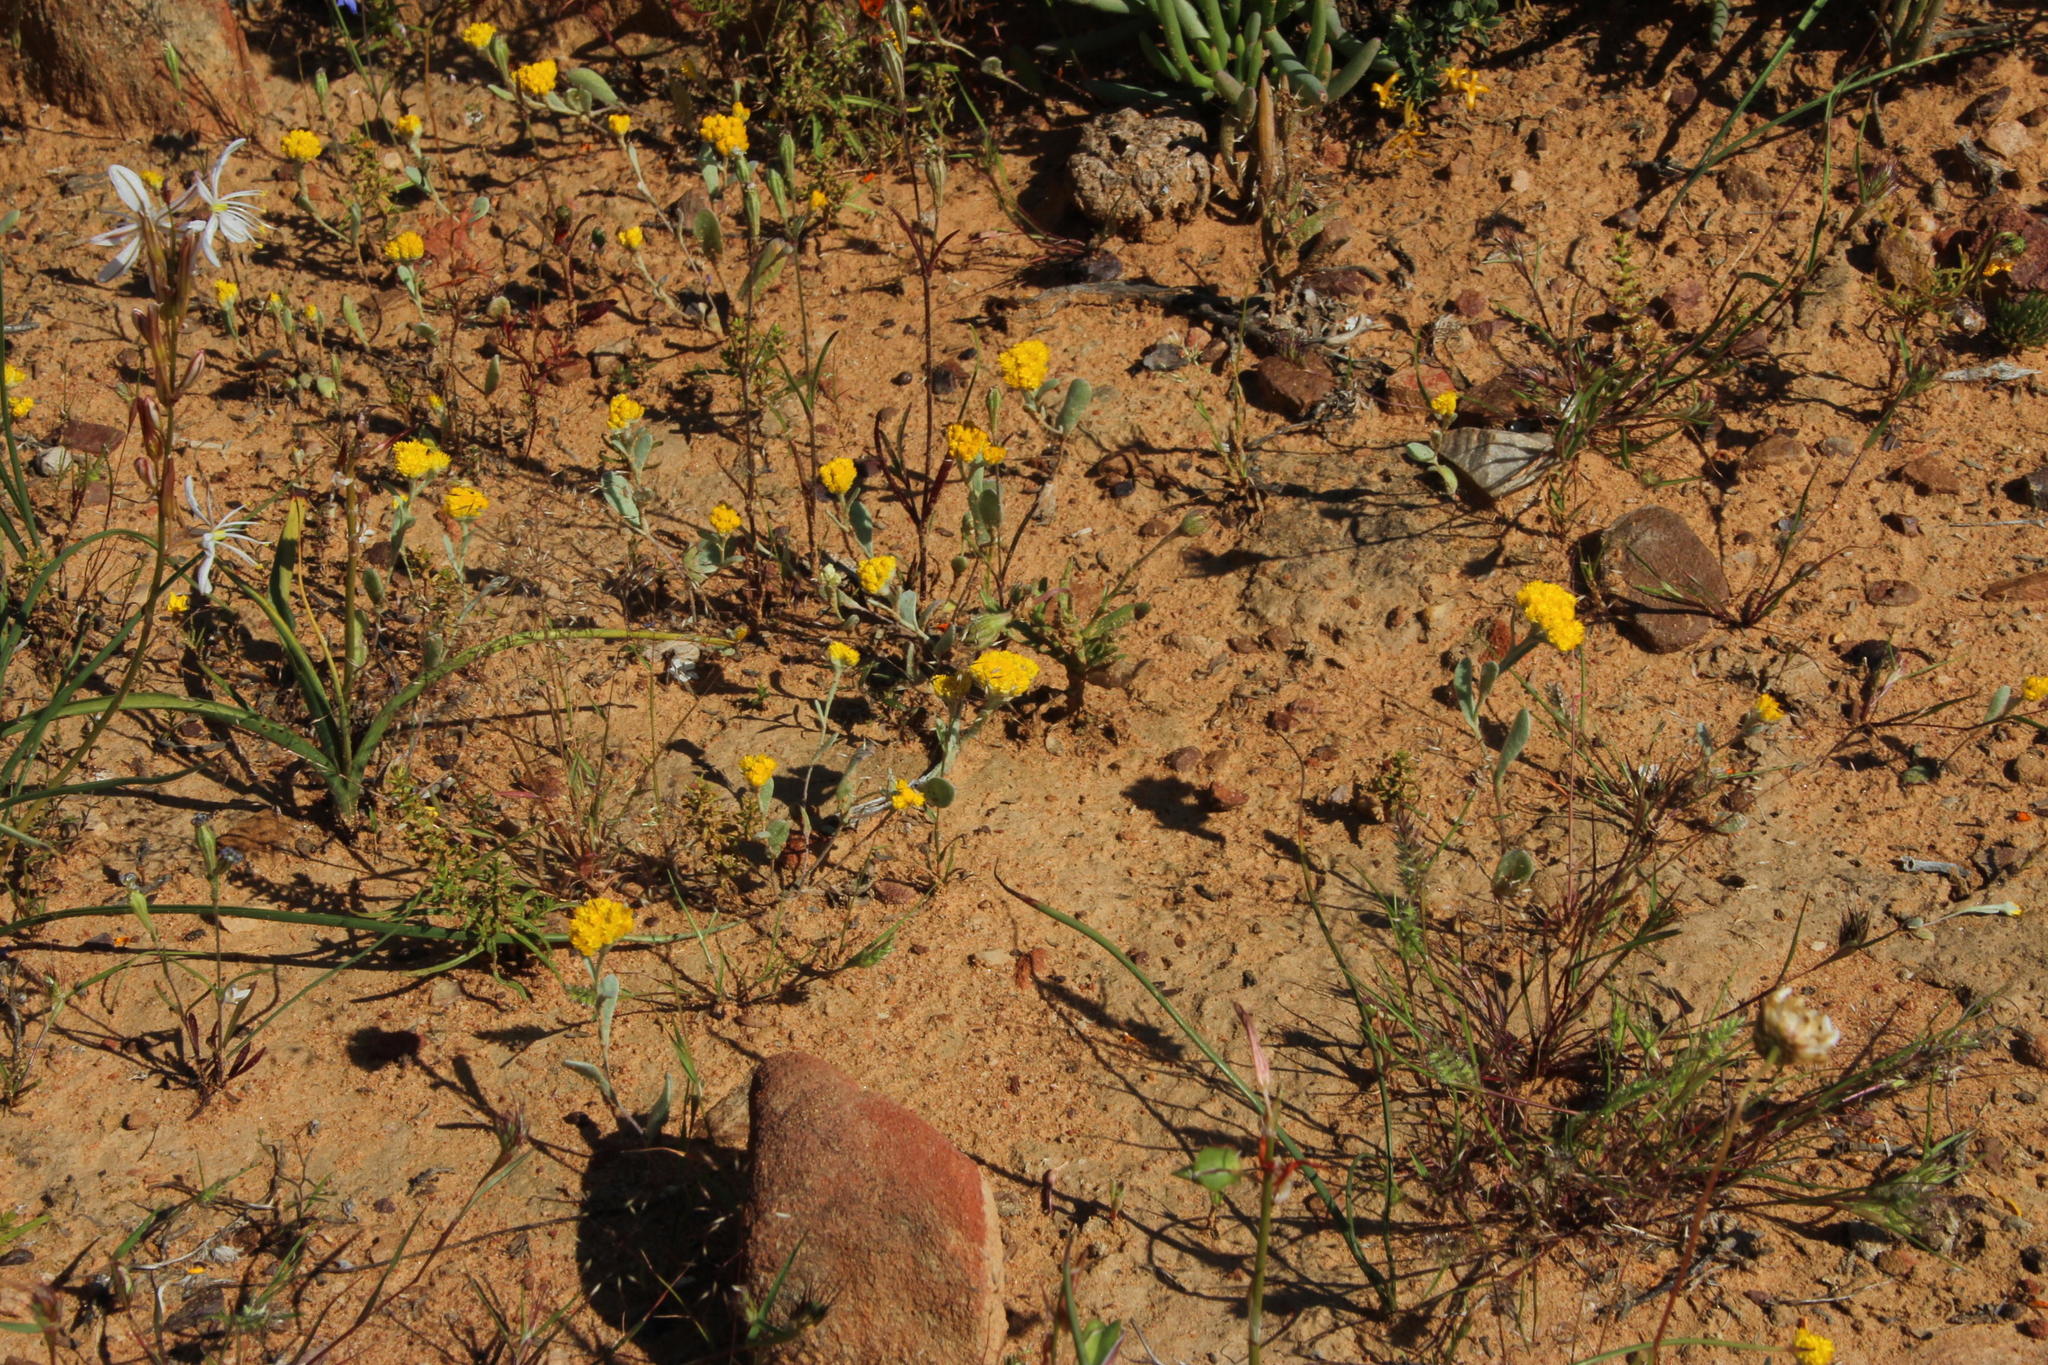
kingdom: Plantae
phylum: Tracheophyta
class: Magnoliopsida
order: Asterales
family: Asteraceae
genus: Helichrysum
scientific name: Helichrysum moeserianum
